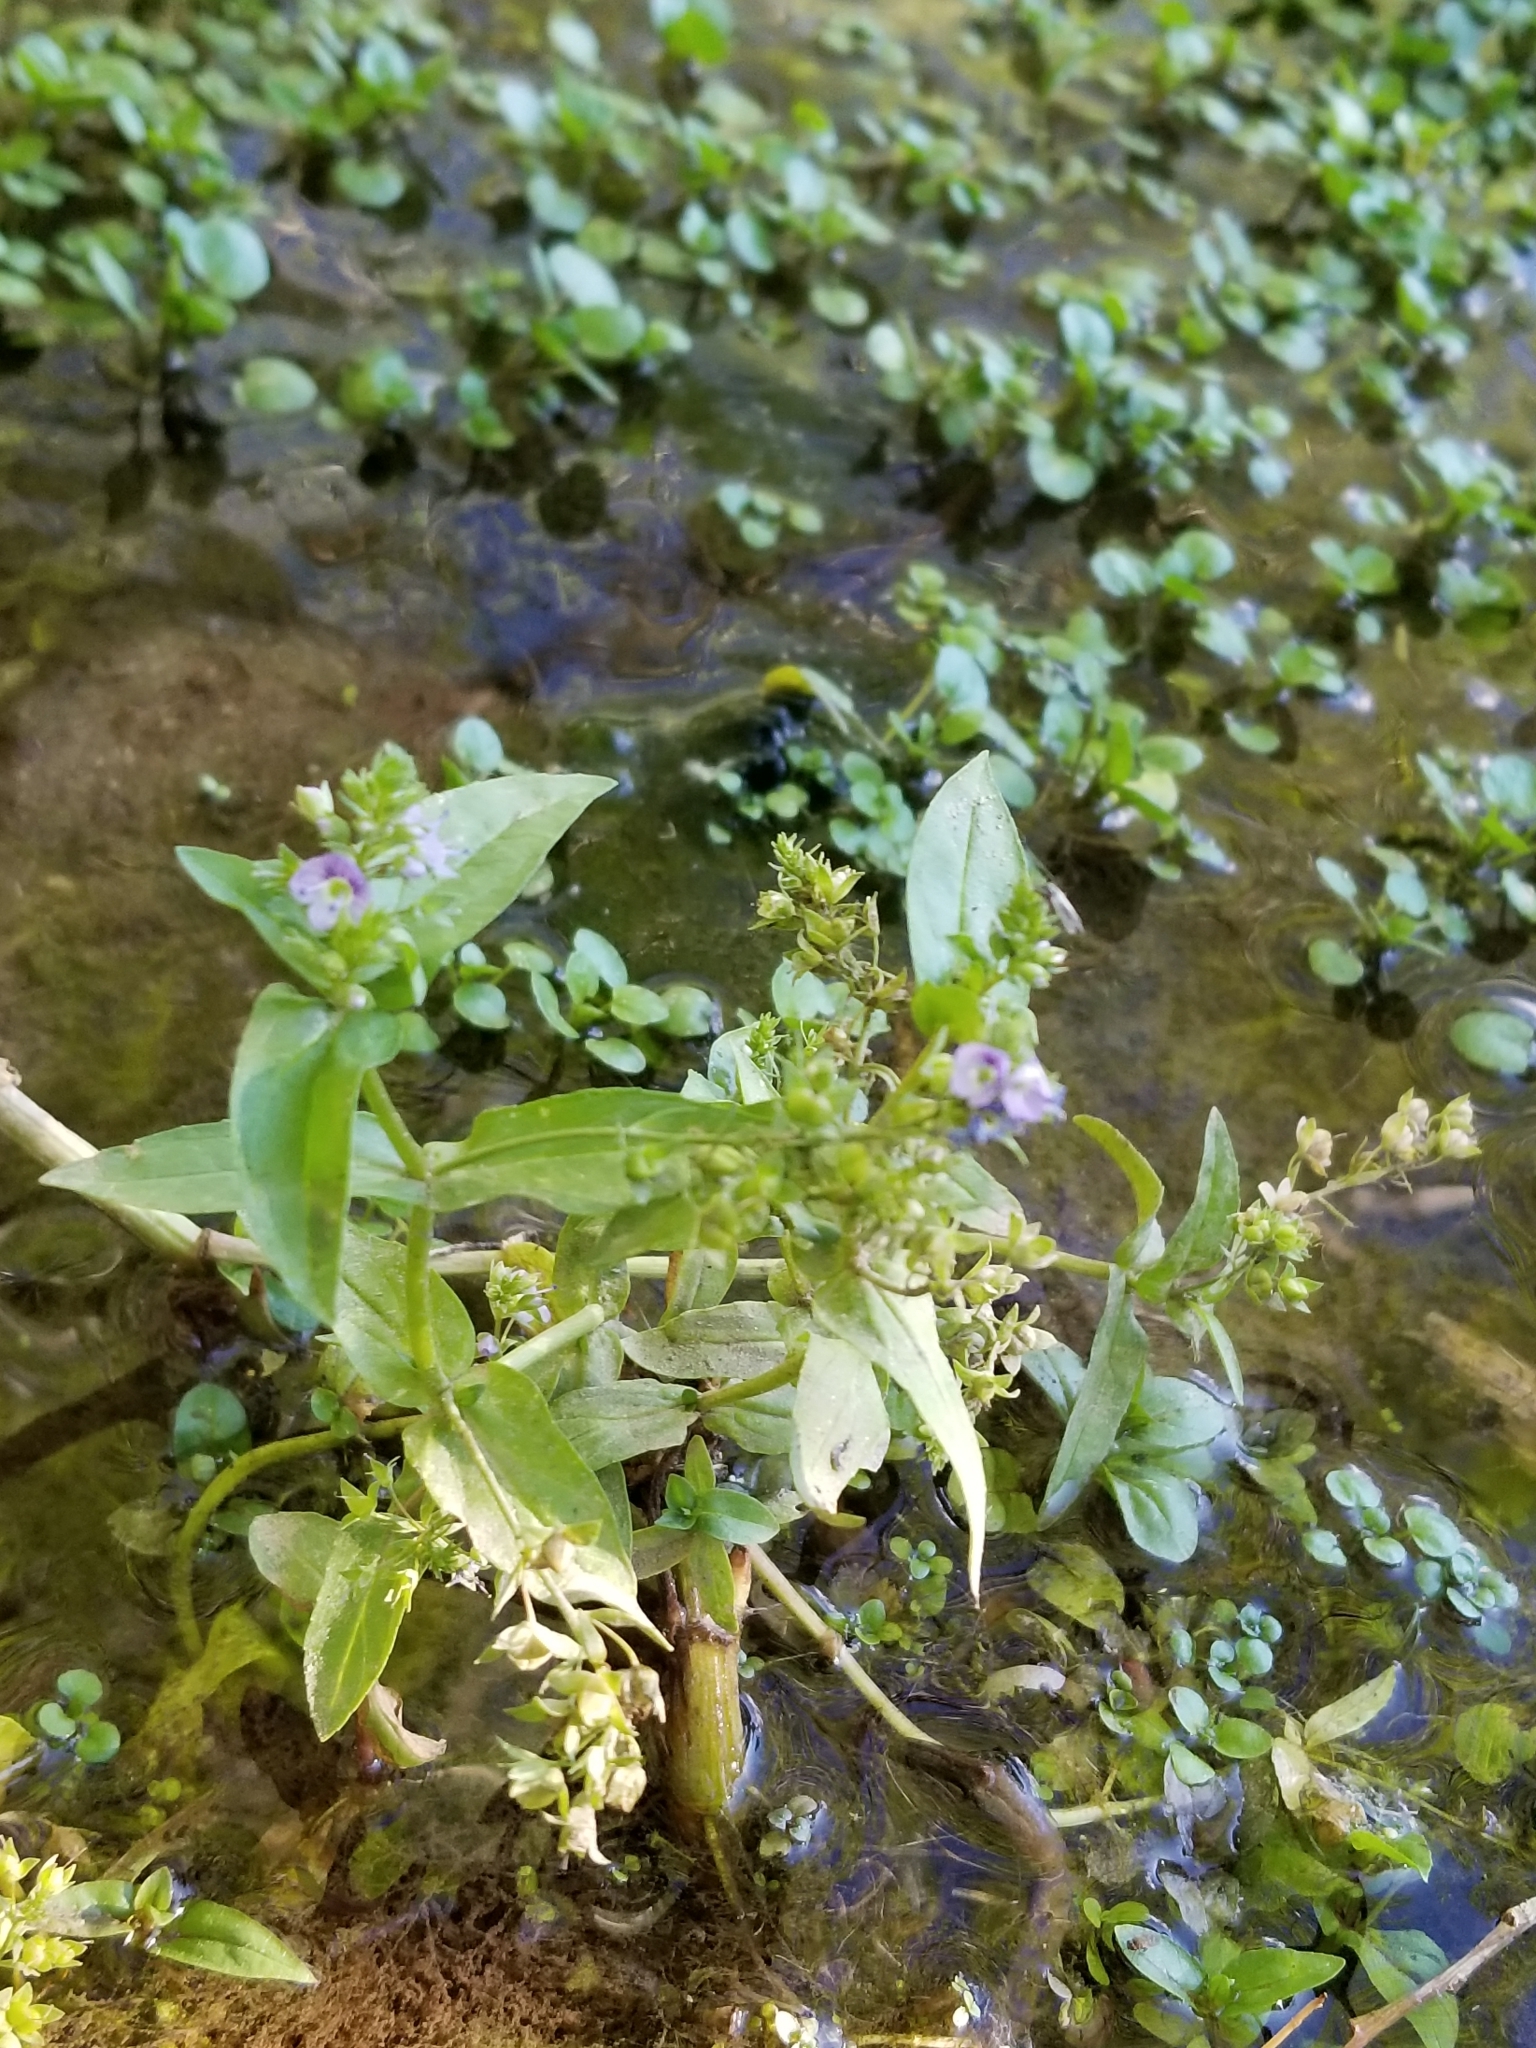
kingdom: Plantae
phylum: Tracheophyta
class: Magnoliopsida
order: Lamiales
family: Plantaginaceae
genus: Veronica
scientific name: Veronica anagallis-aquatica
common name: Water speedwell
